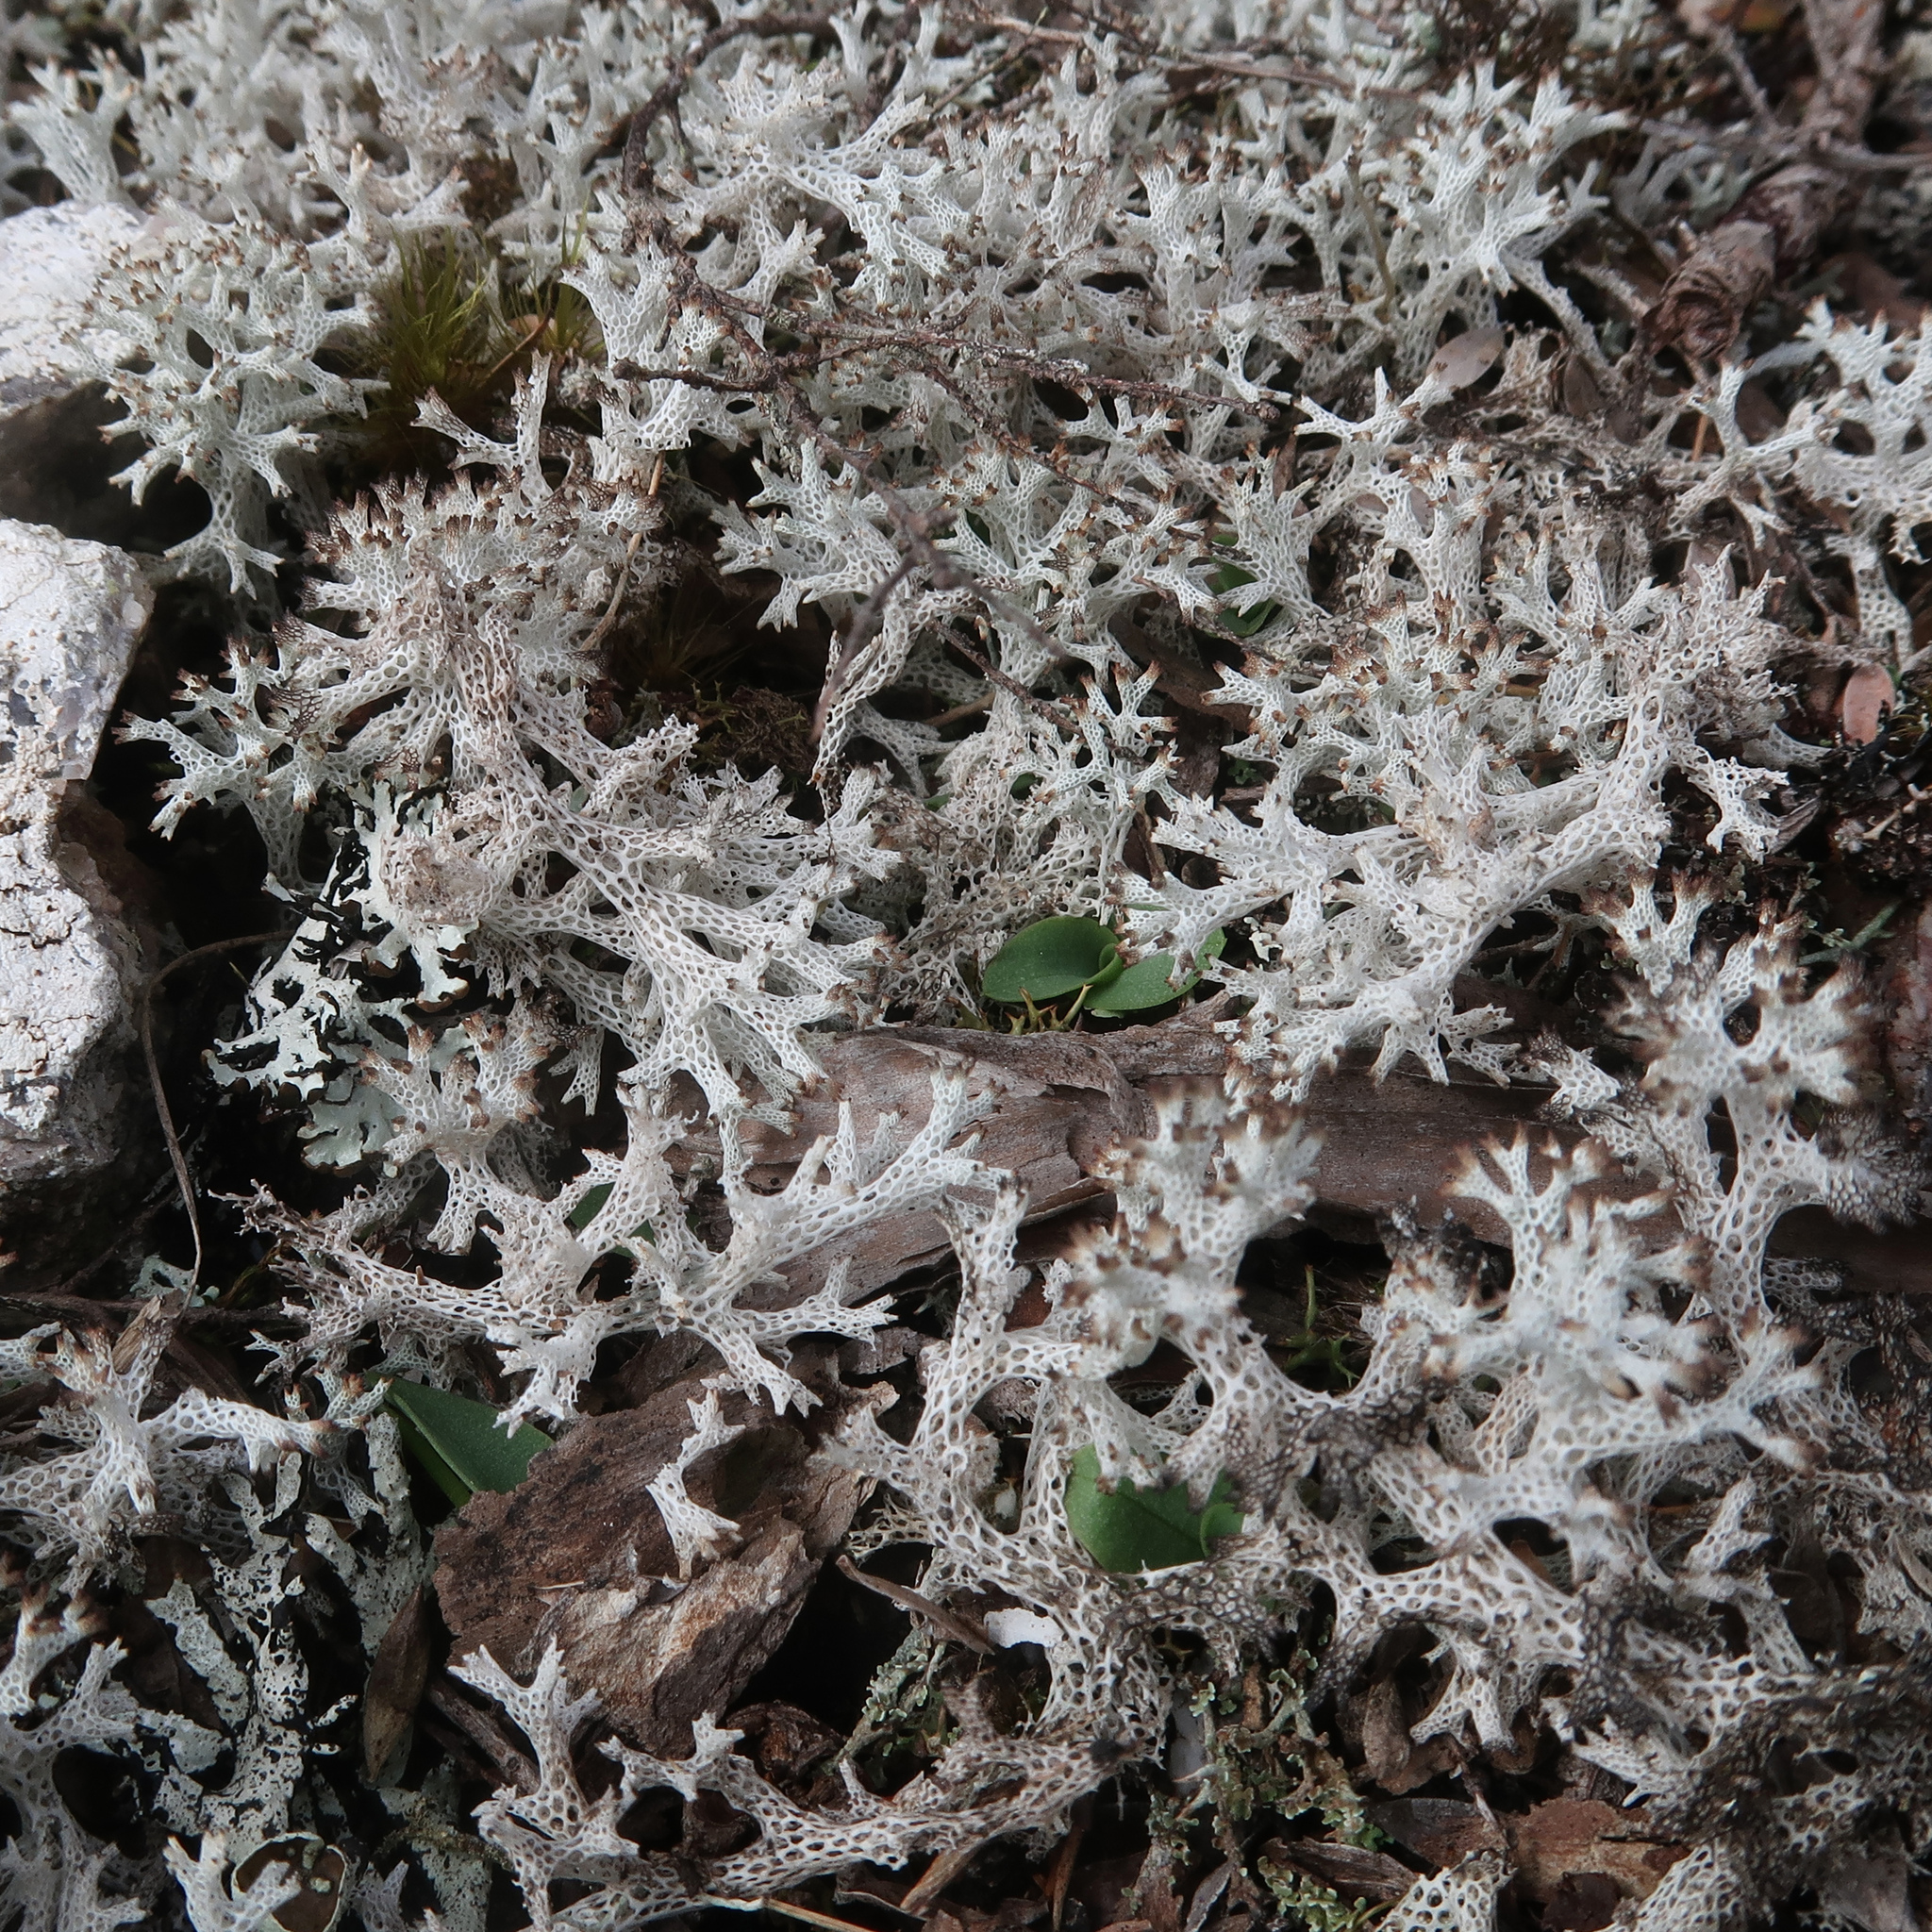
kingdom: Fungi
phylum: Ascomycota
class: Lecanoromycetes
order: Lecanorales
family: Cladoniaceae
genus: Pulchrocladia
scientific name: Pulchrocladia retipora
